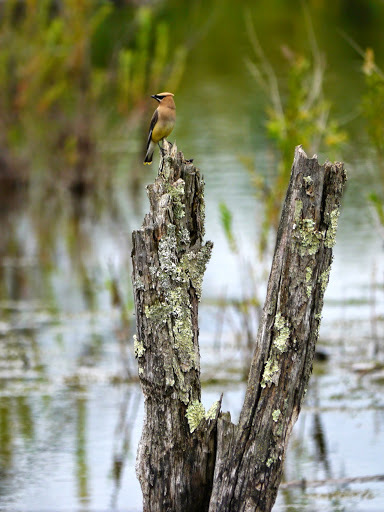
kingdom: Animalia
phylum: Chordata
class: Aves
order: Passeriformes
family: Bombycillidae
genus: Bombycilla
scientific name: Bombycilla cedrorum
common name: Cedar waxwing
